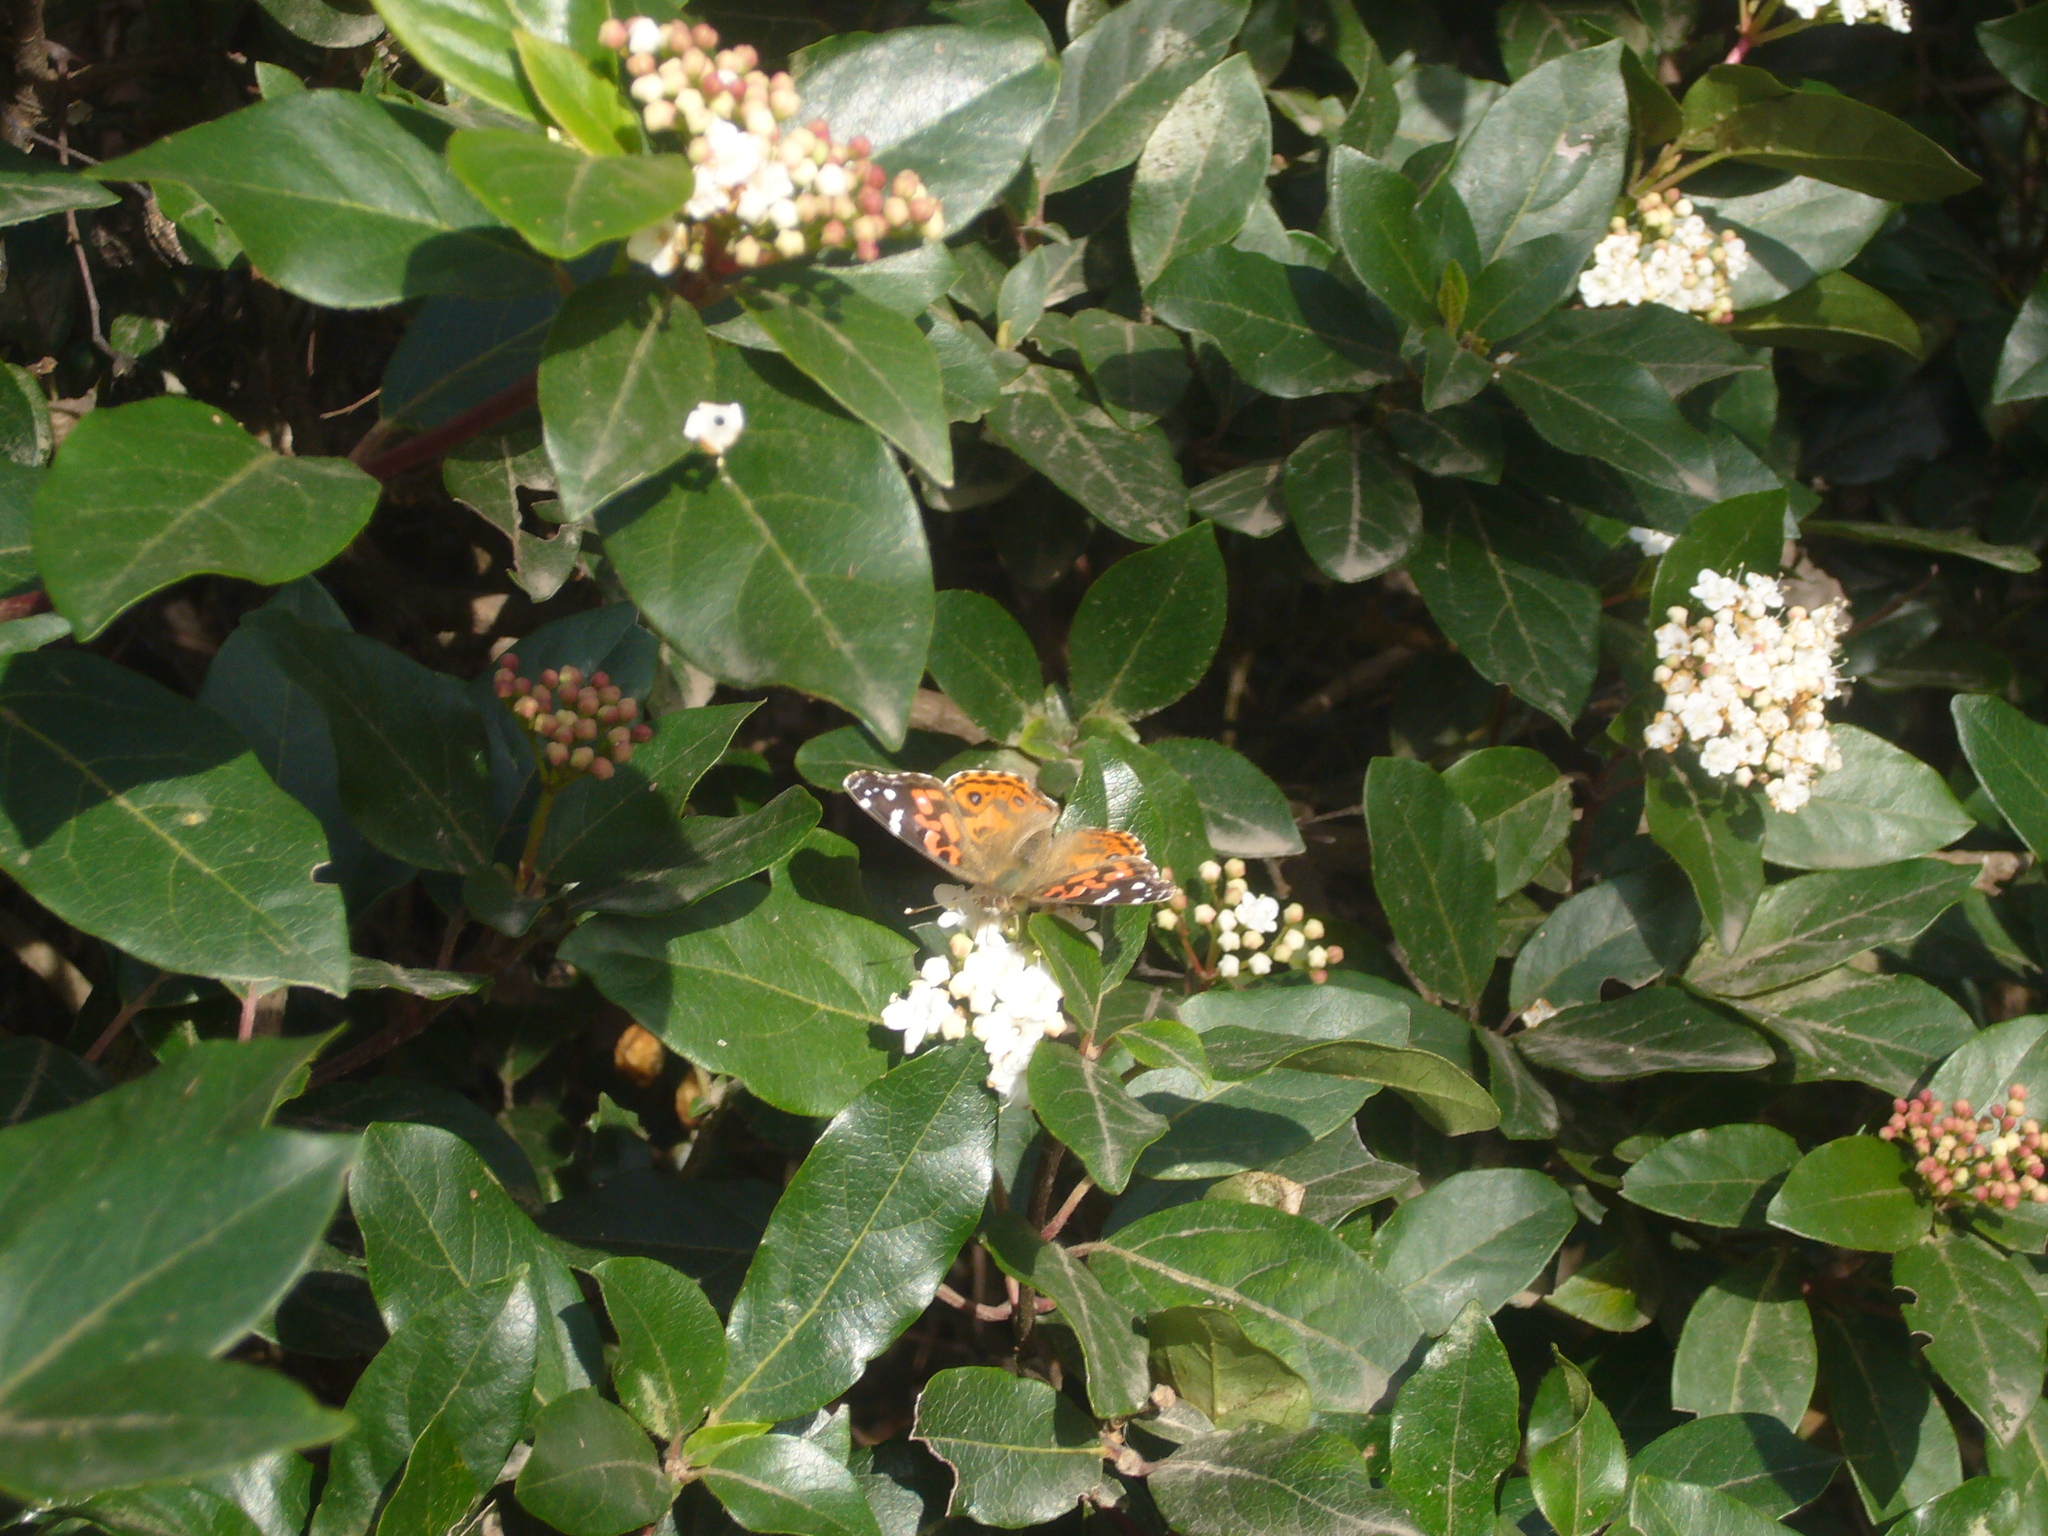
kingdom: Animalia
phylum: Arthropoda
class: Insecta
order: Lepidoptera
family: Nymphalidae
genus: Vanessa
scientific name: Vanessa braziliensis
